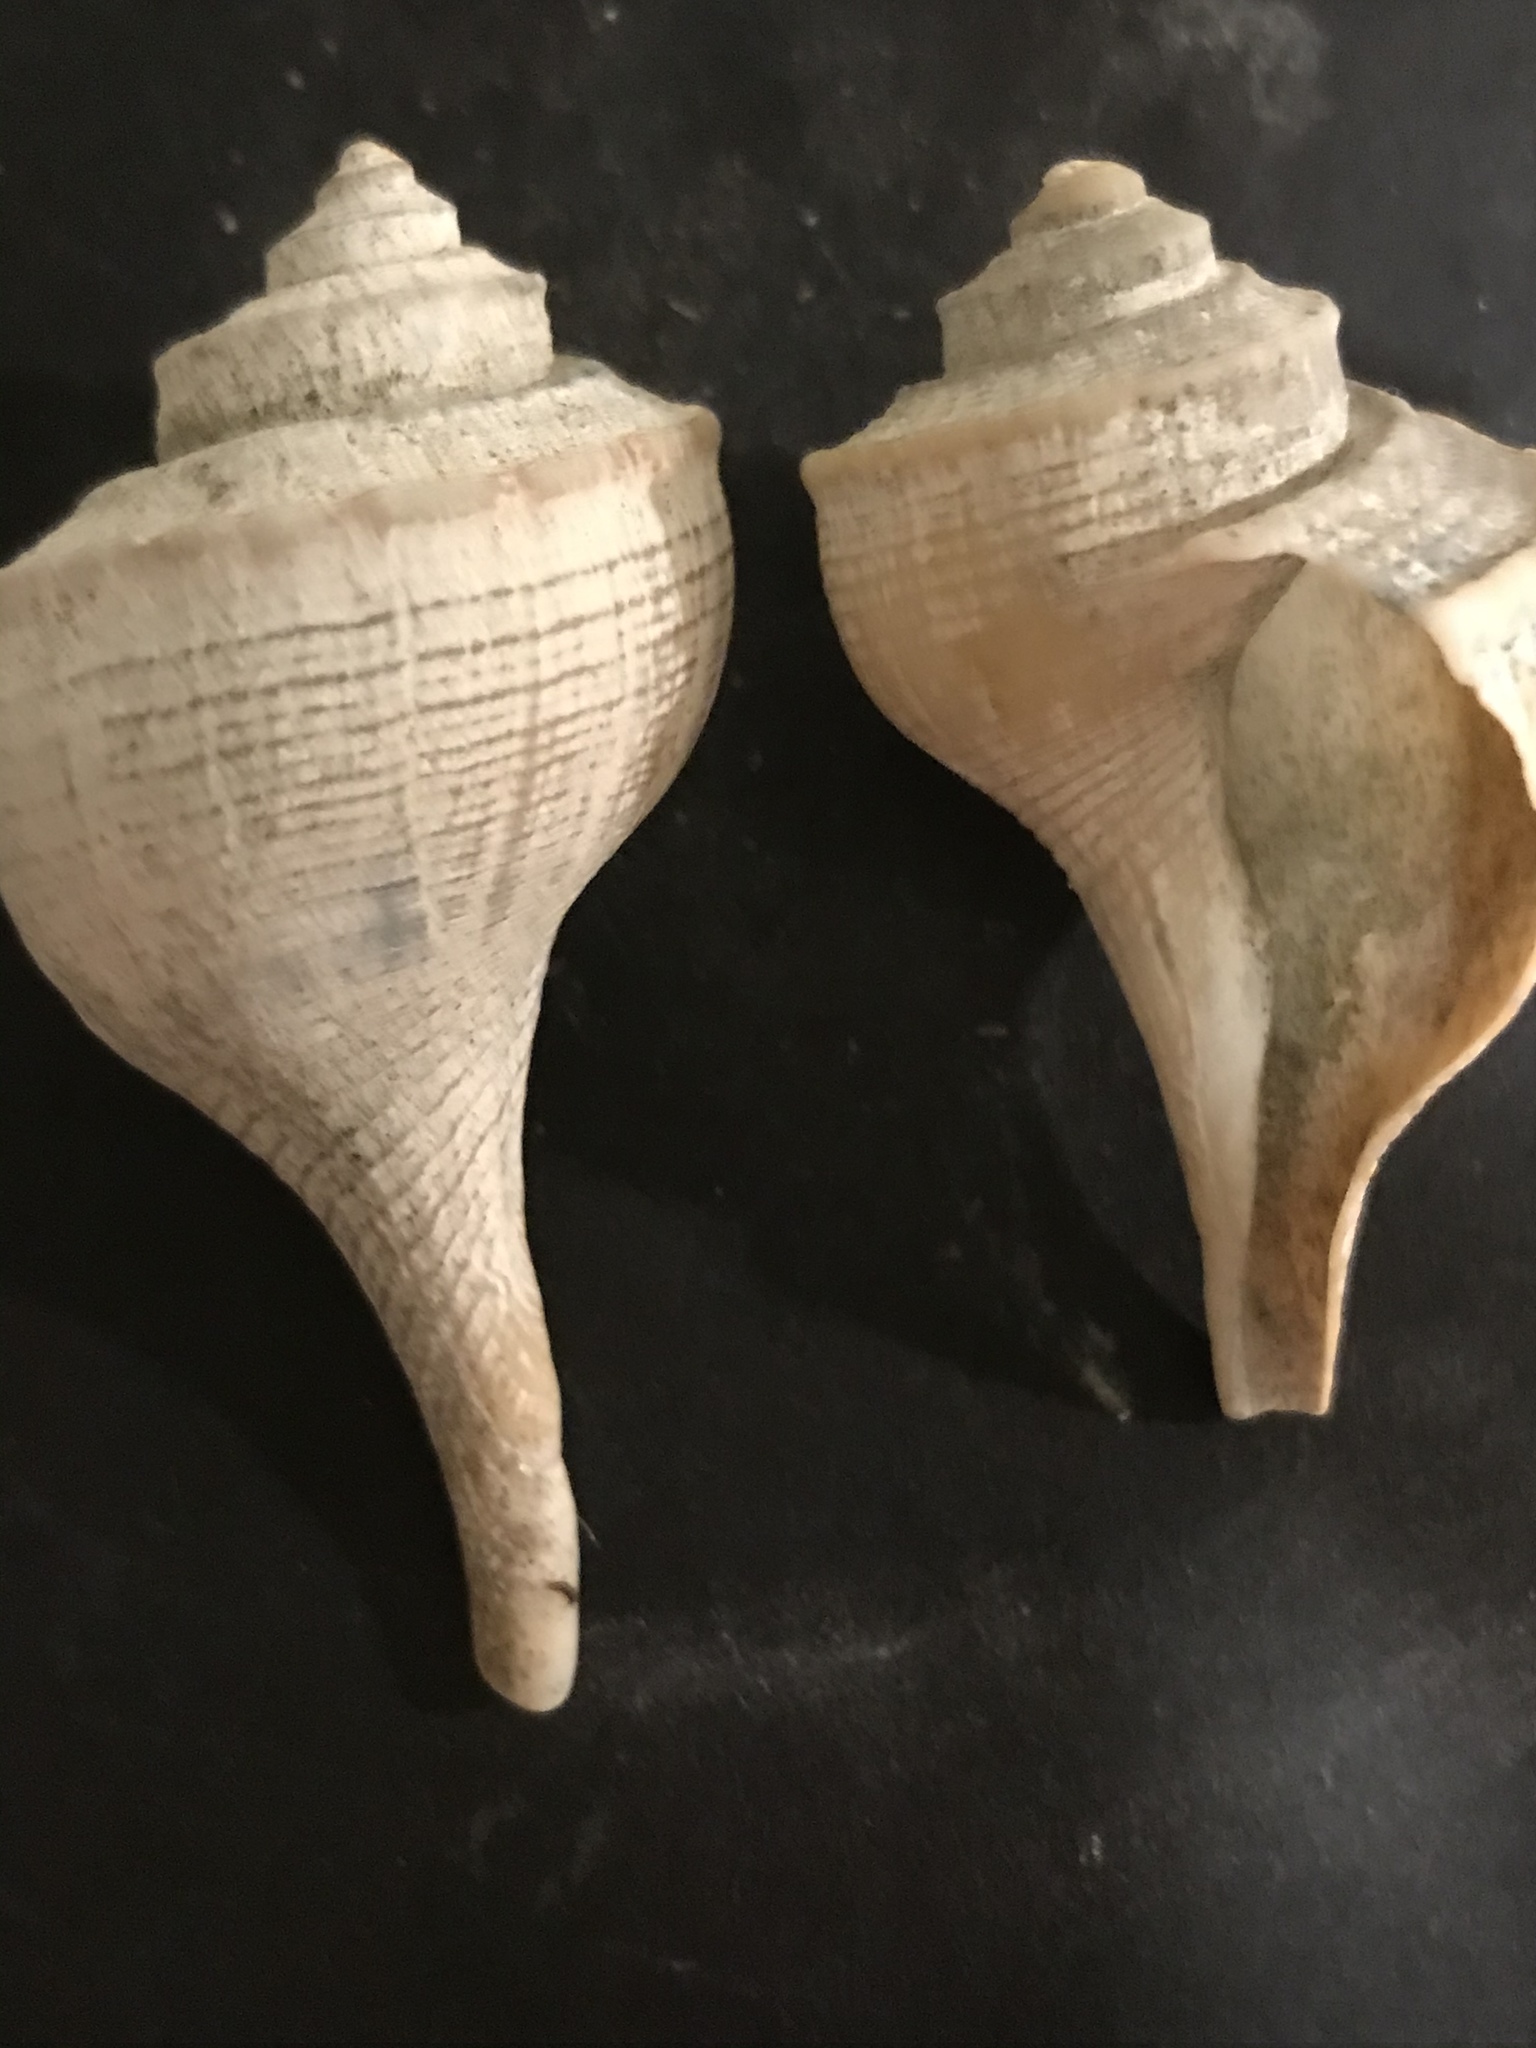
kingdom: Animalia
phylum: Mollusca
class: Gastropoda
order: Neogastropoda
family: Busyconidae
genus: Busycotypus
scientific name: Busycotypus canaliculatus
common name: Channeled whelk
